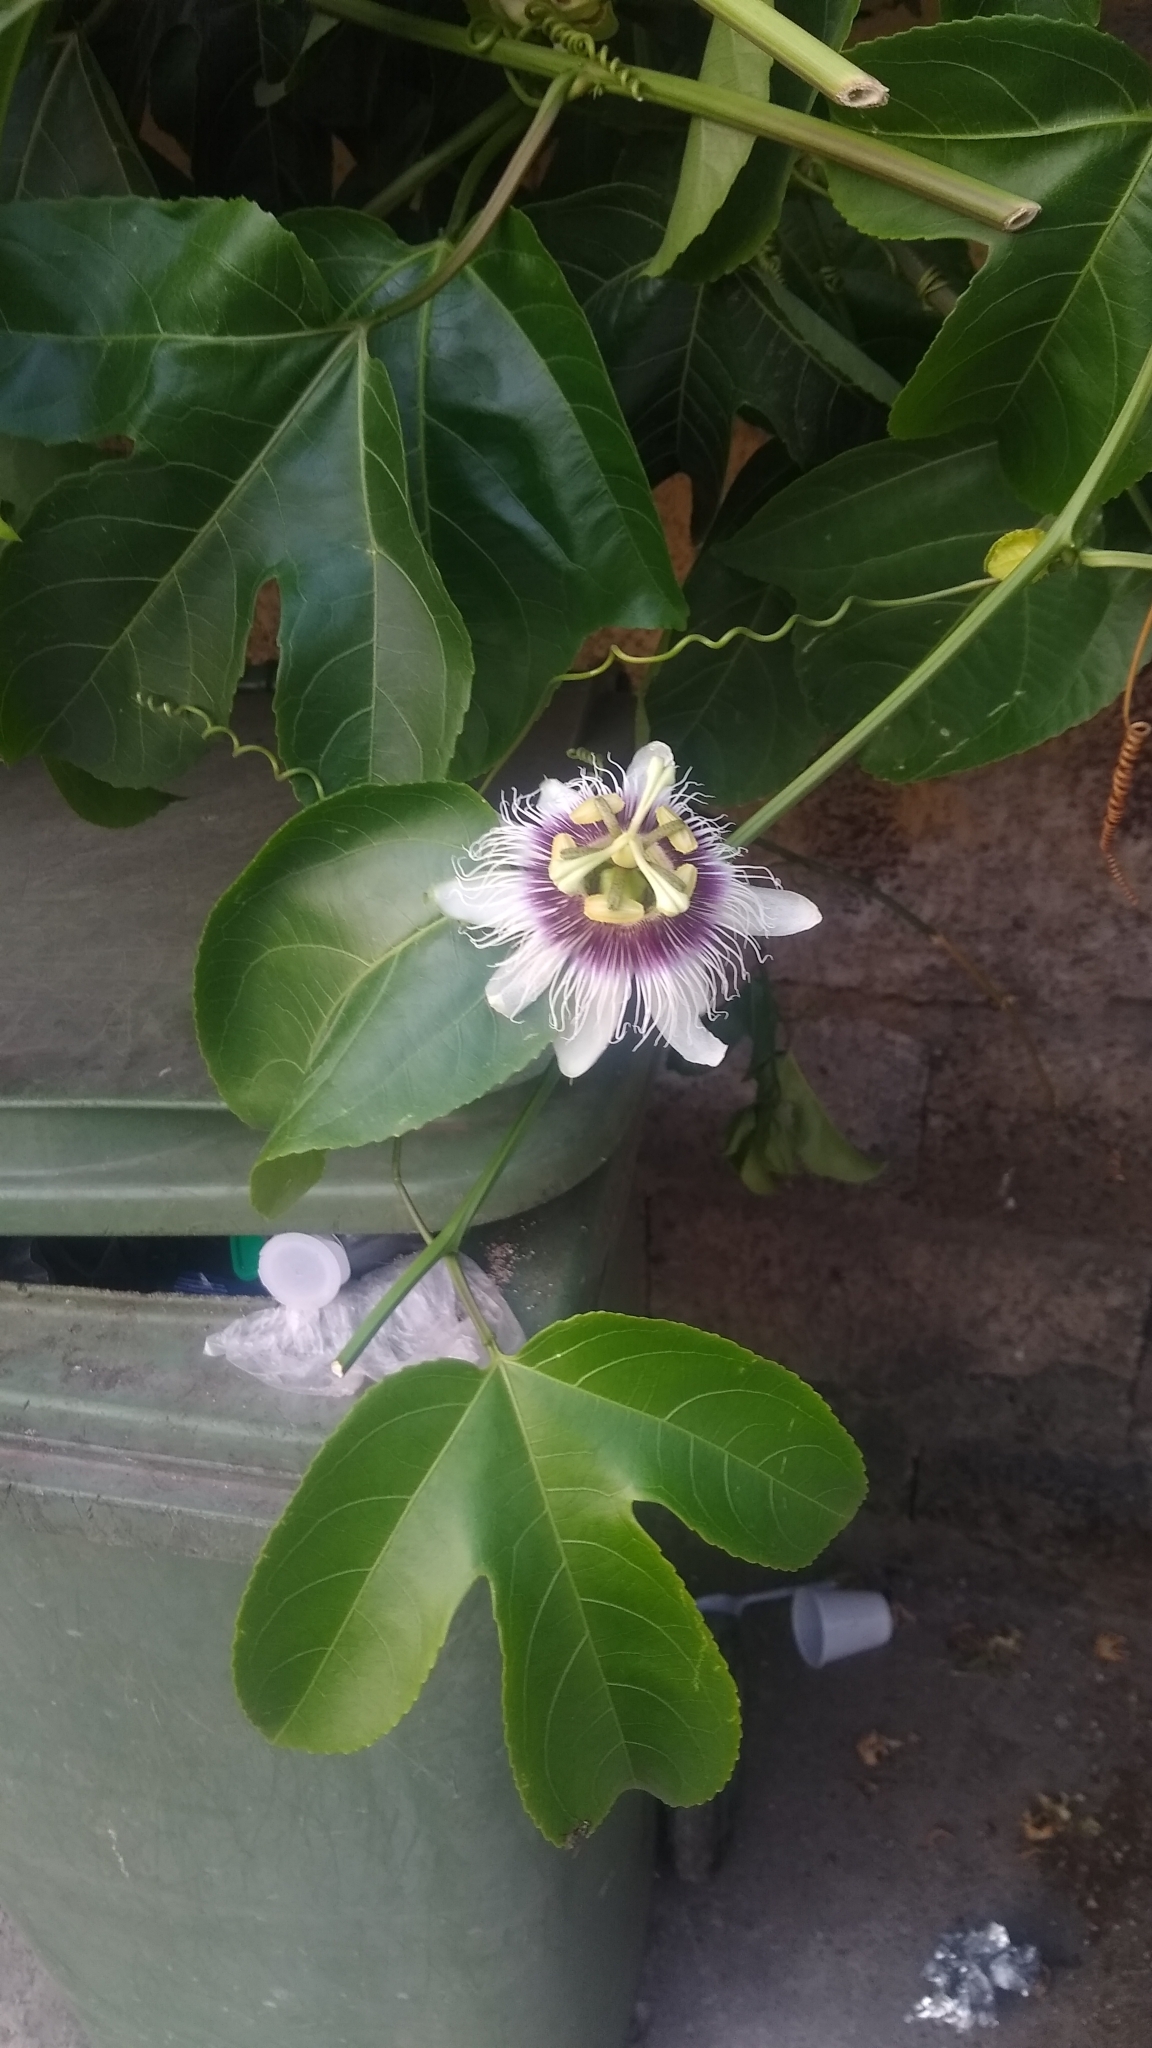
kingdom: Plantae
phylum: Tracheophyta
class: Magnoliopsida
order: Malpighiales
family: Passifloraceae
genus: Passiflora
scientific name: Passiflora edulis
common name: Purple granadilla
